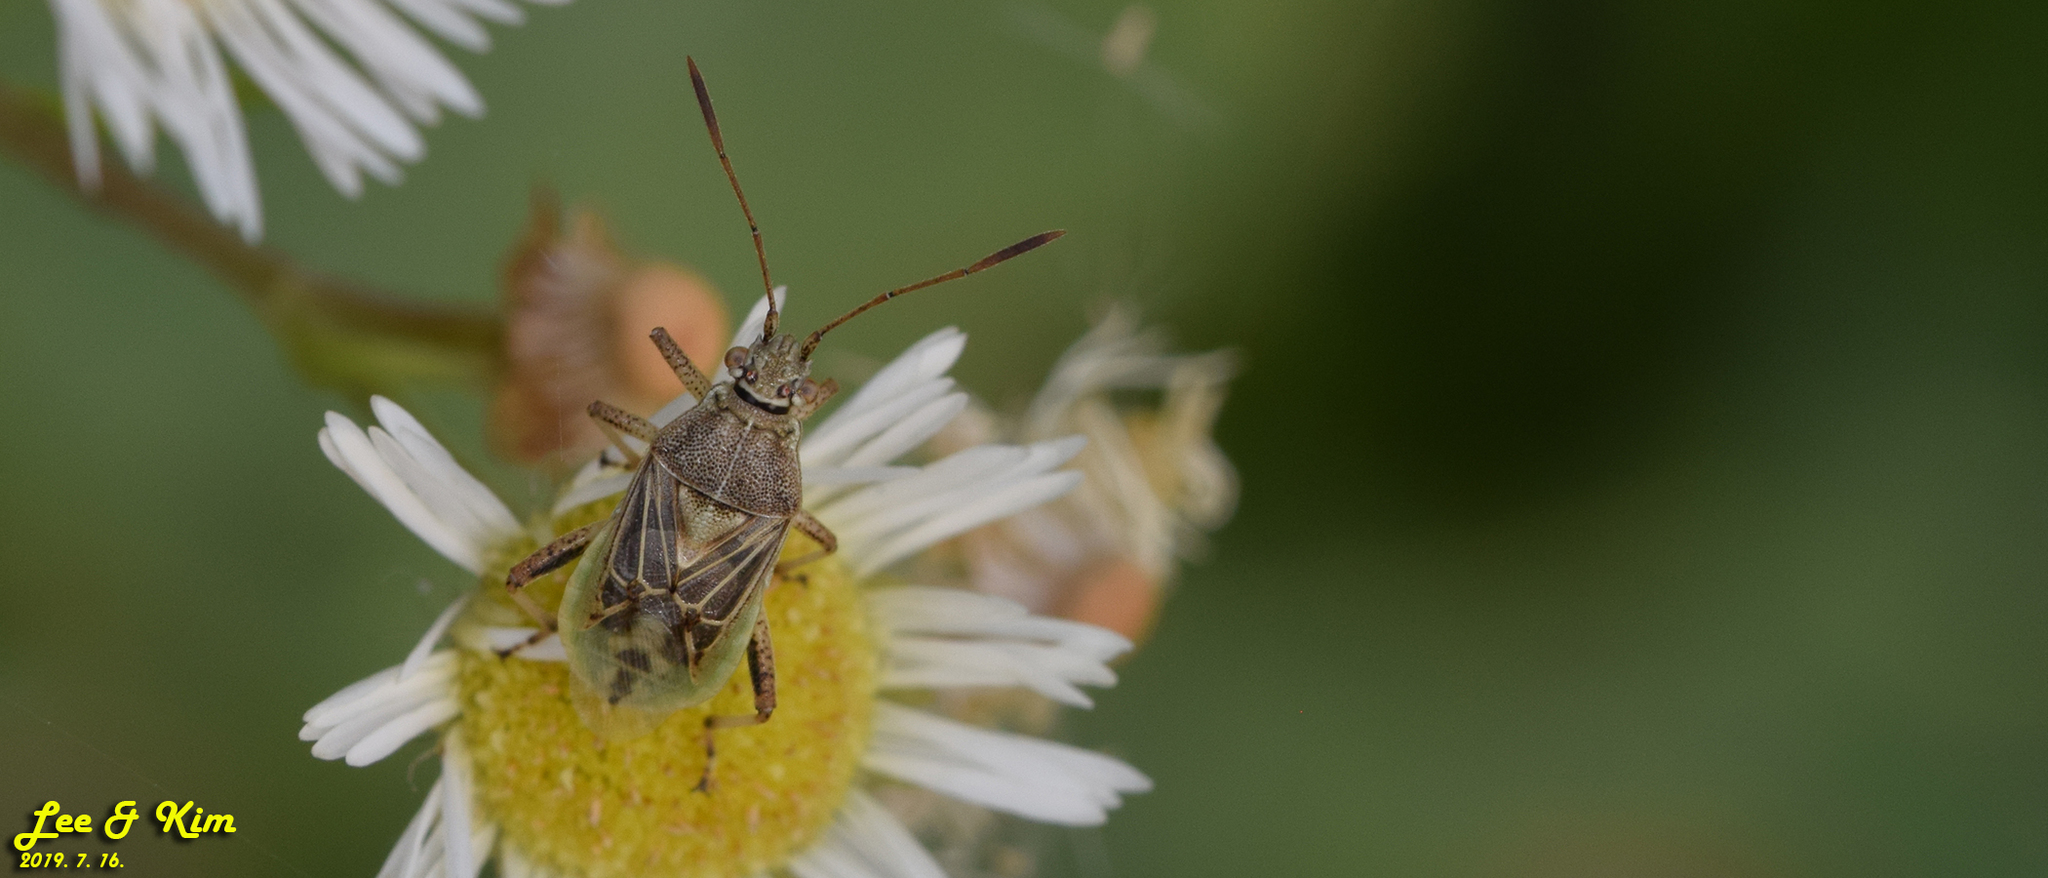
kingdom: Animalia
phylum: Arthropoda
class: Insecta
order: Hemiptera
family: Rhopalidae
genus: Stictopleurus
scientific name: Stictopleurus minutus
